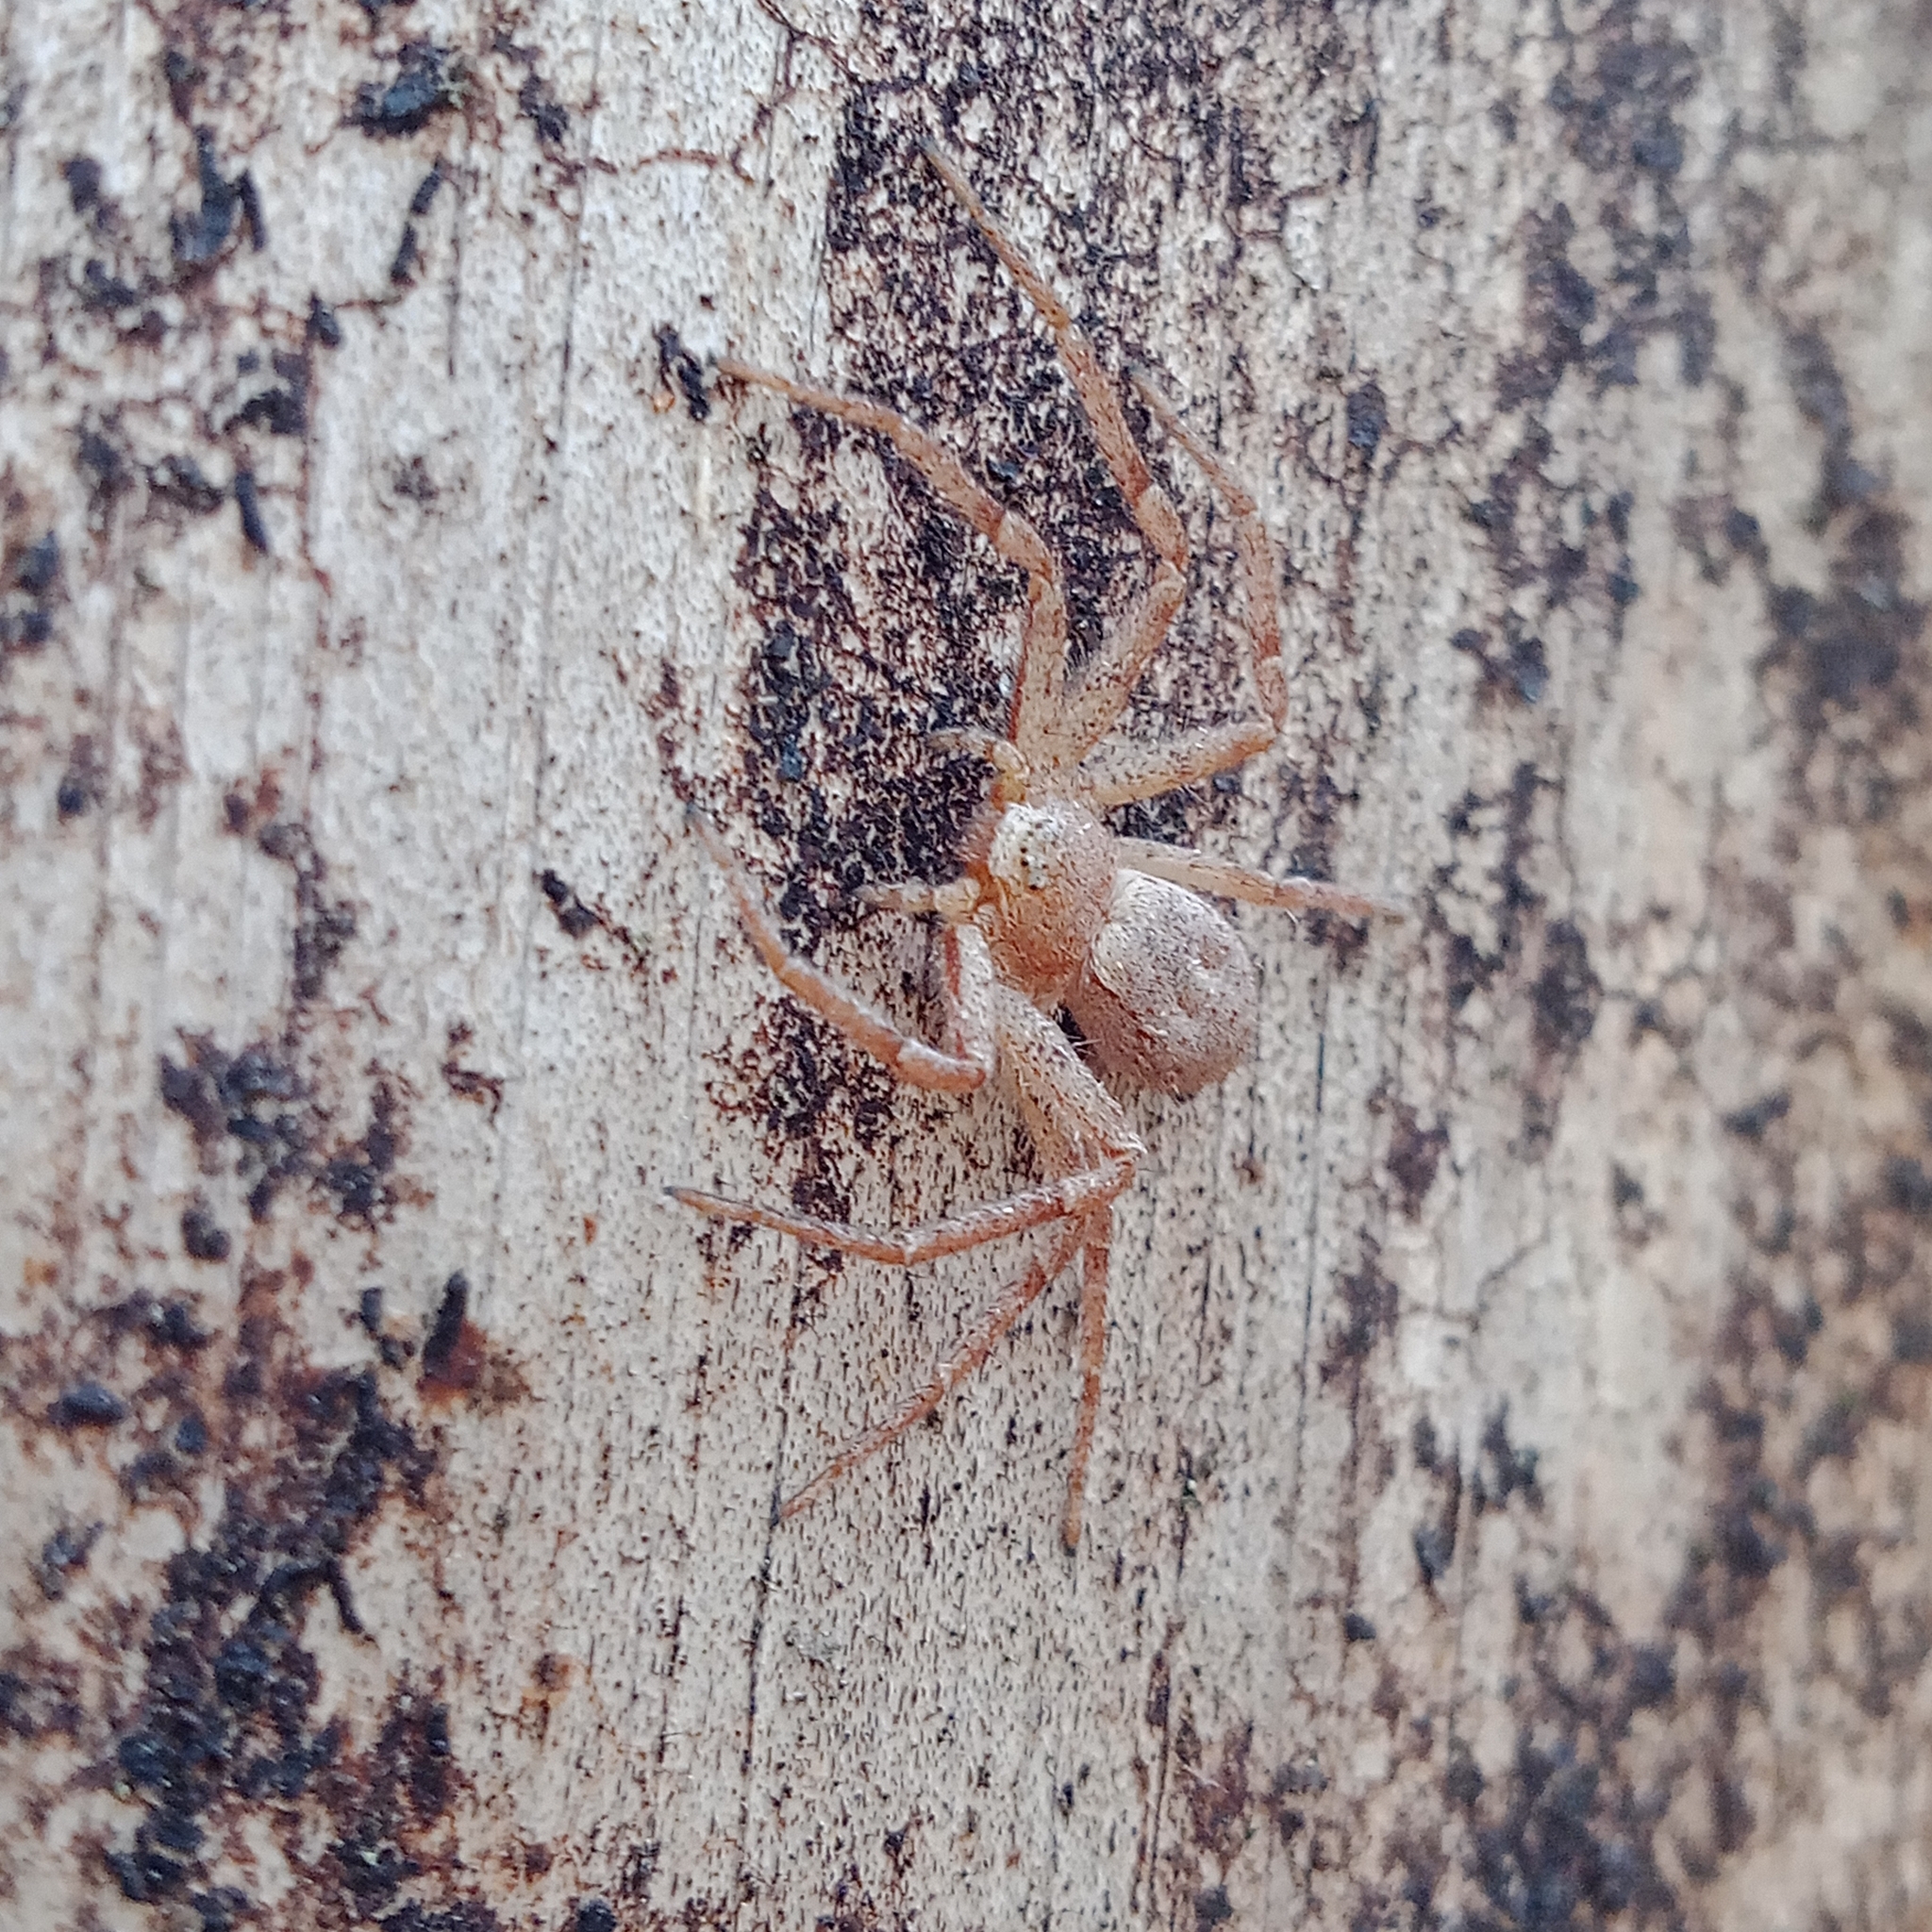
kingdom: Animalia
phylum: Arthropoda
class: Arachnida
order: Araneae
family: Philodromidae
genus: Philodromus
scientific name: Philodromus fuscomarginatus
